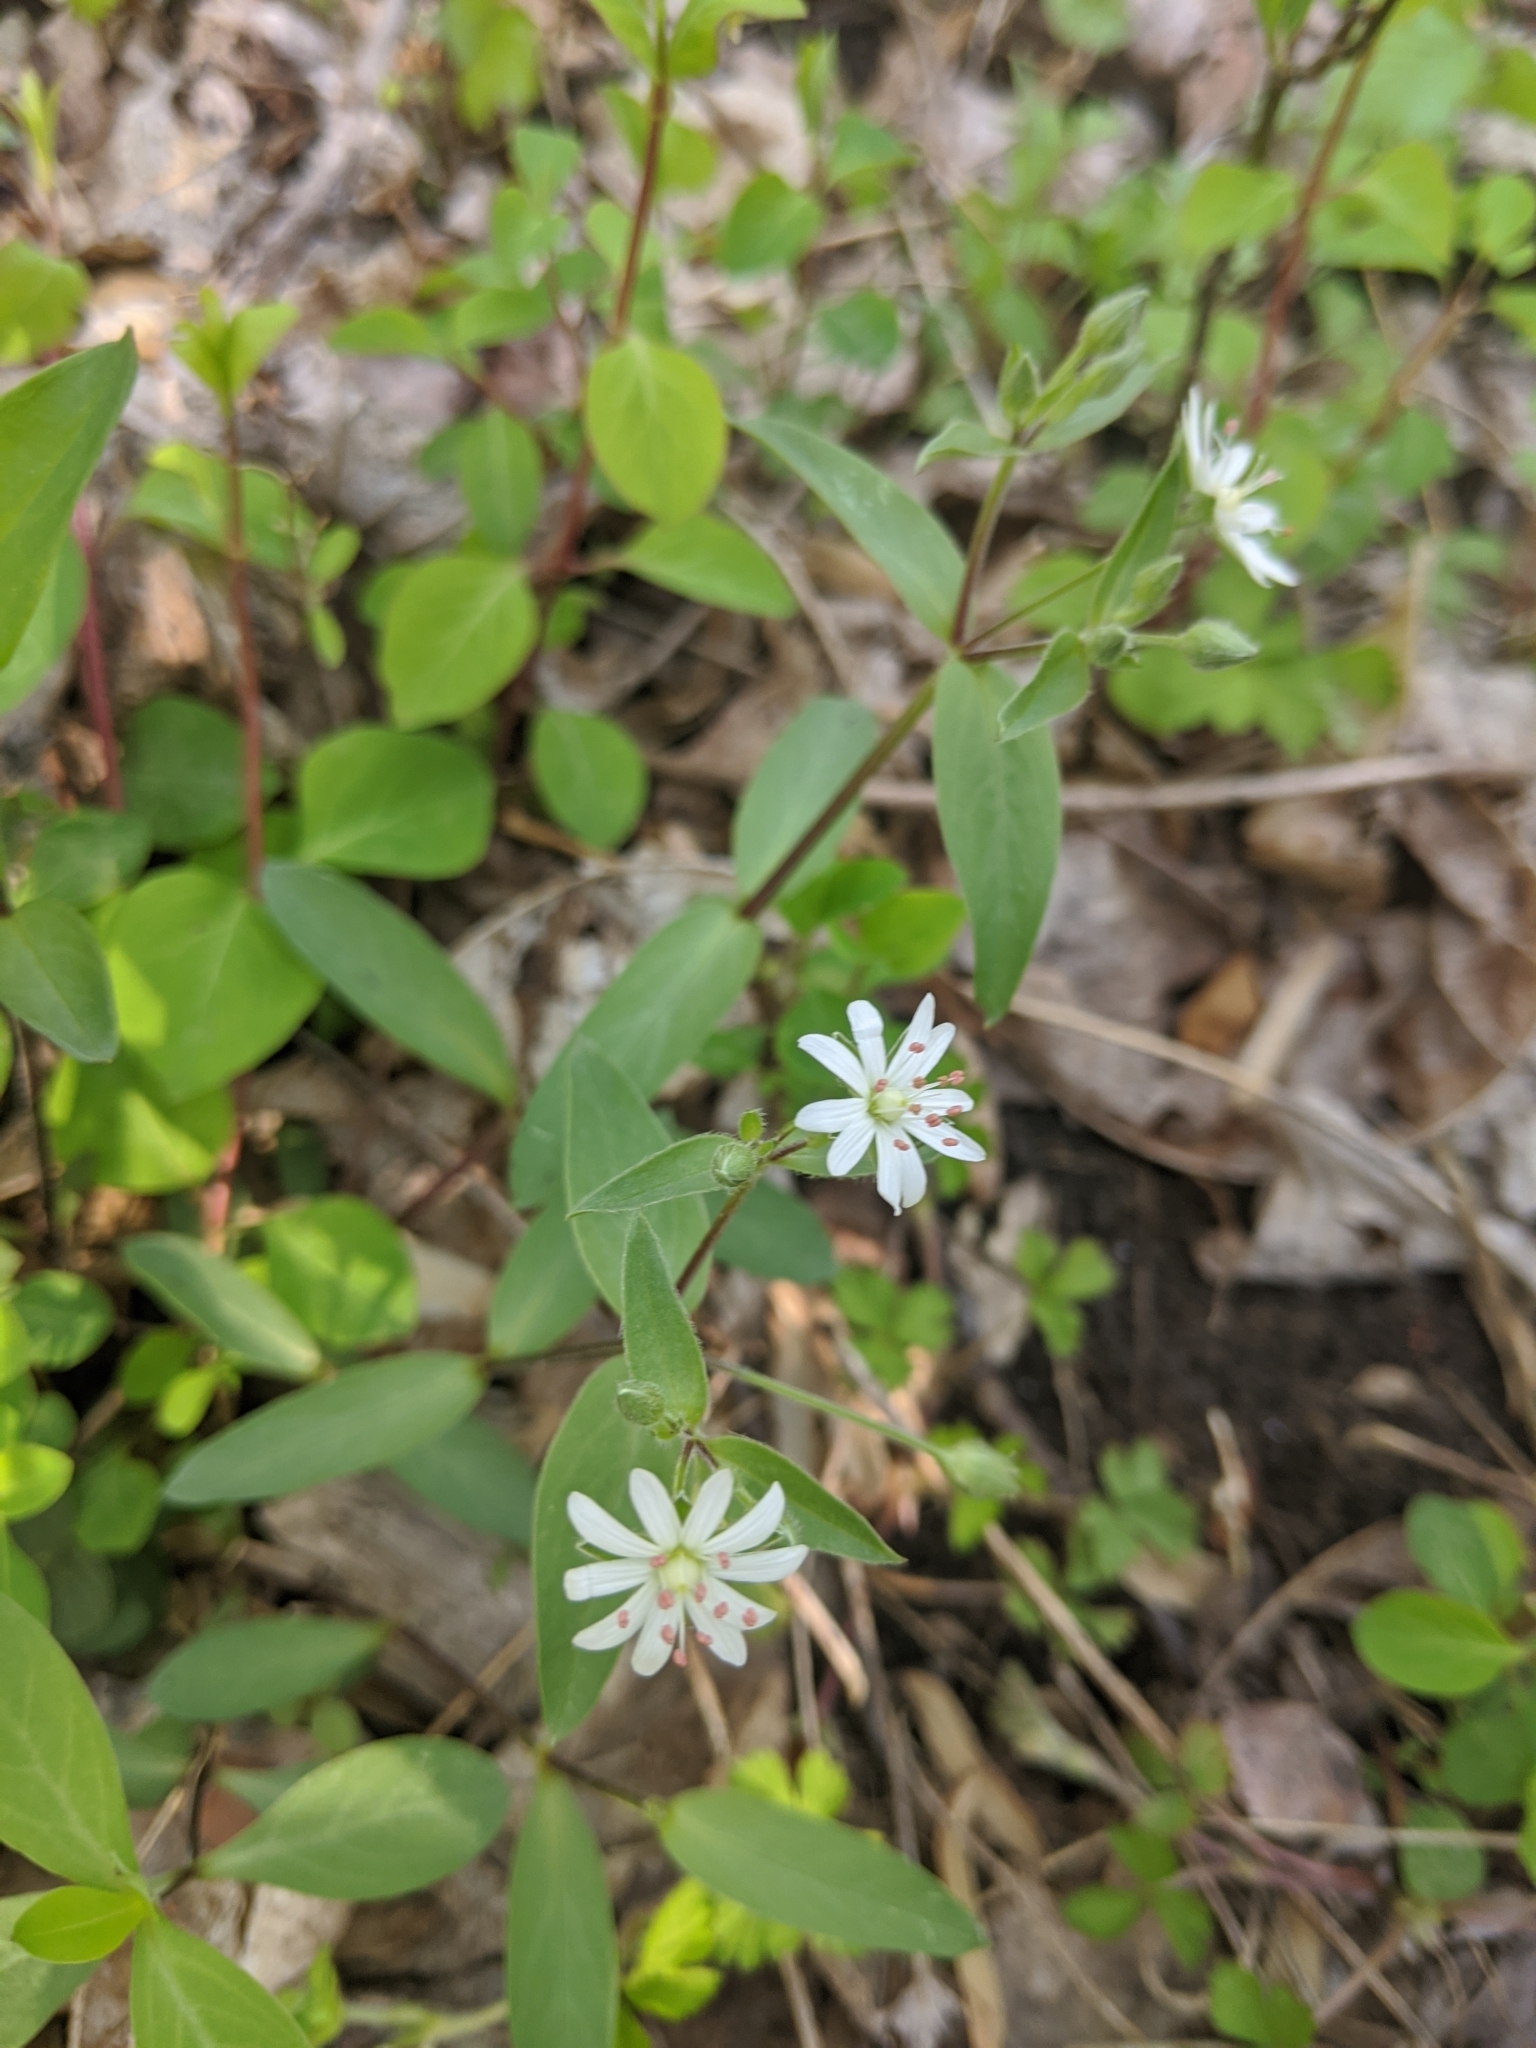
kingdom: Plantae
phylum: Tracheophyta
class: Magnoliopsida
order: Caryophyllales
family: Caryophyllaceae
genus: Stellaria
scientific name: Stellaria pubera
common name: Star chickweed
